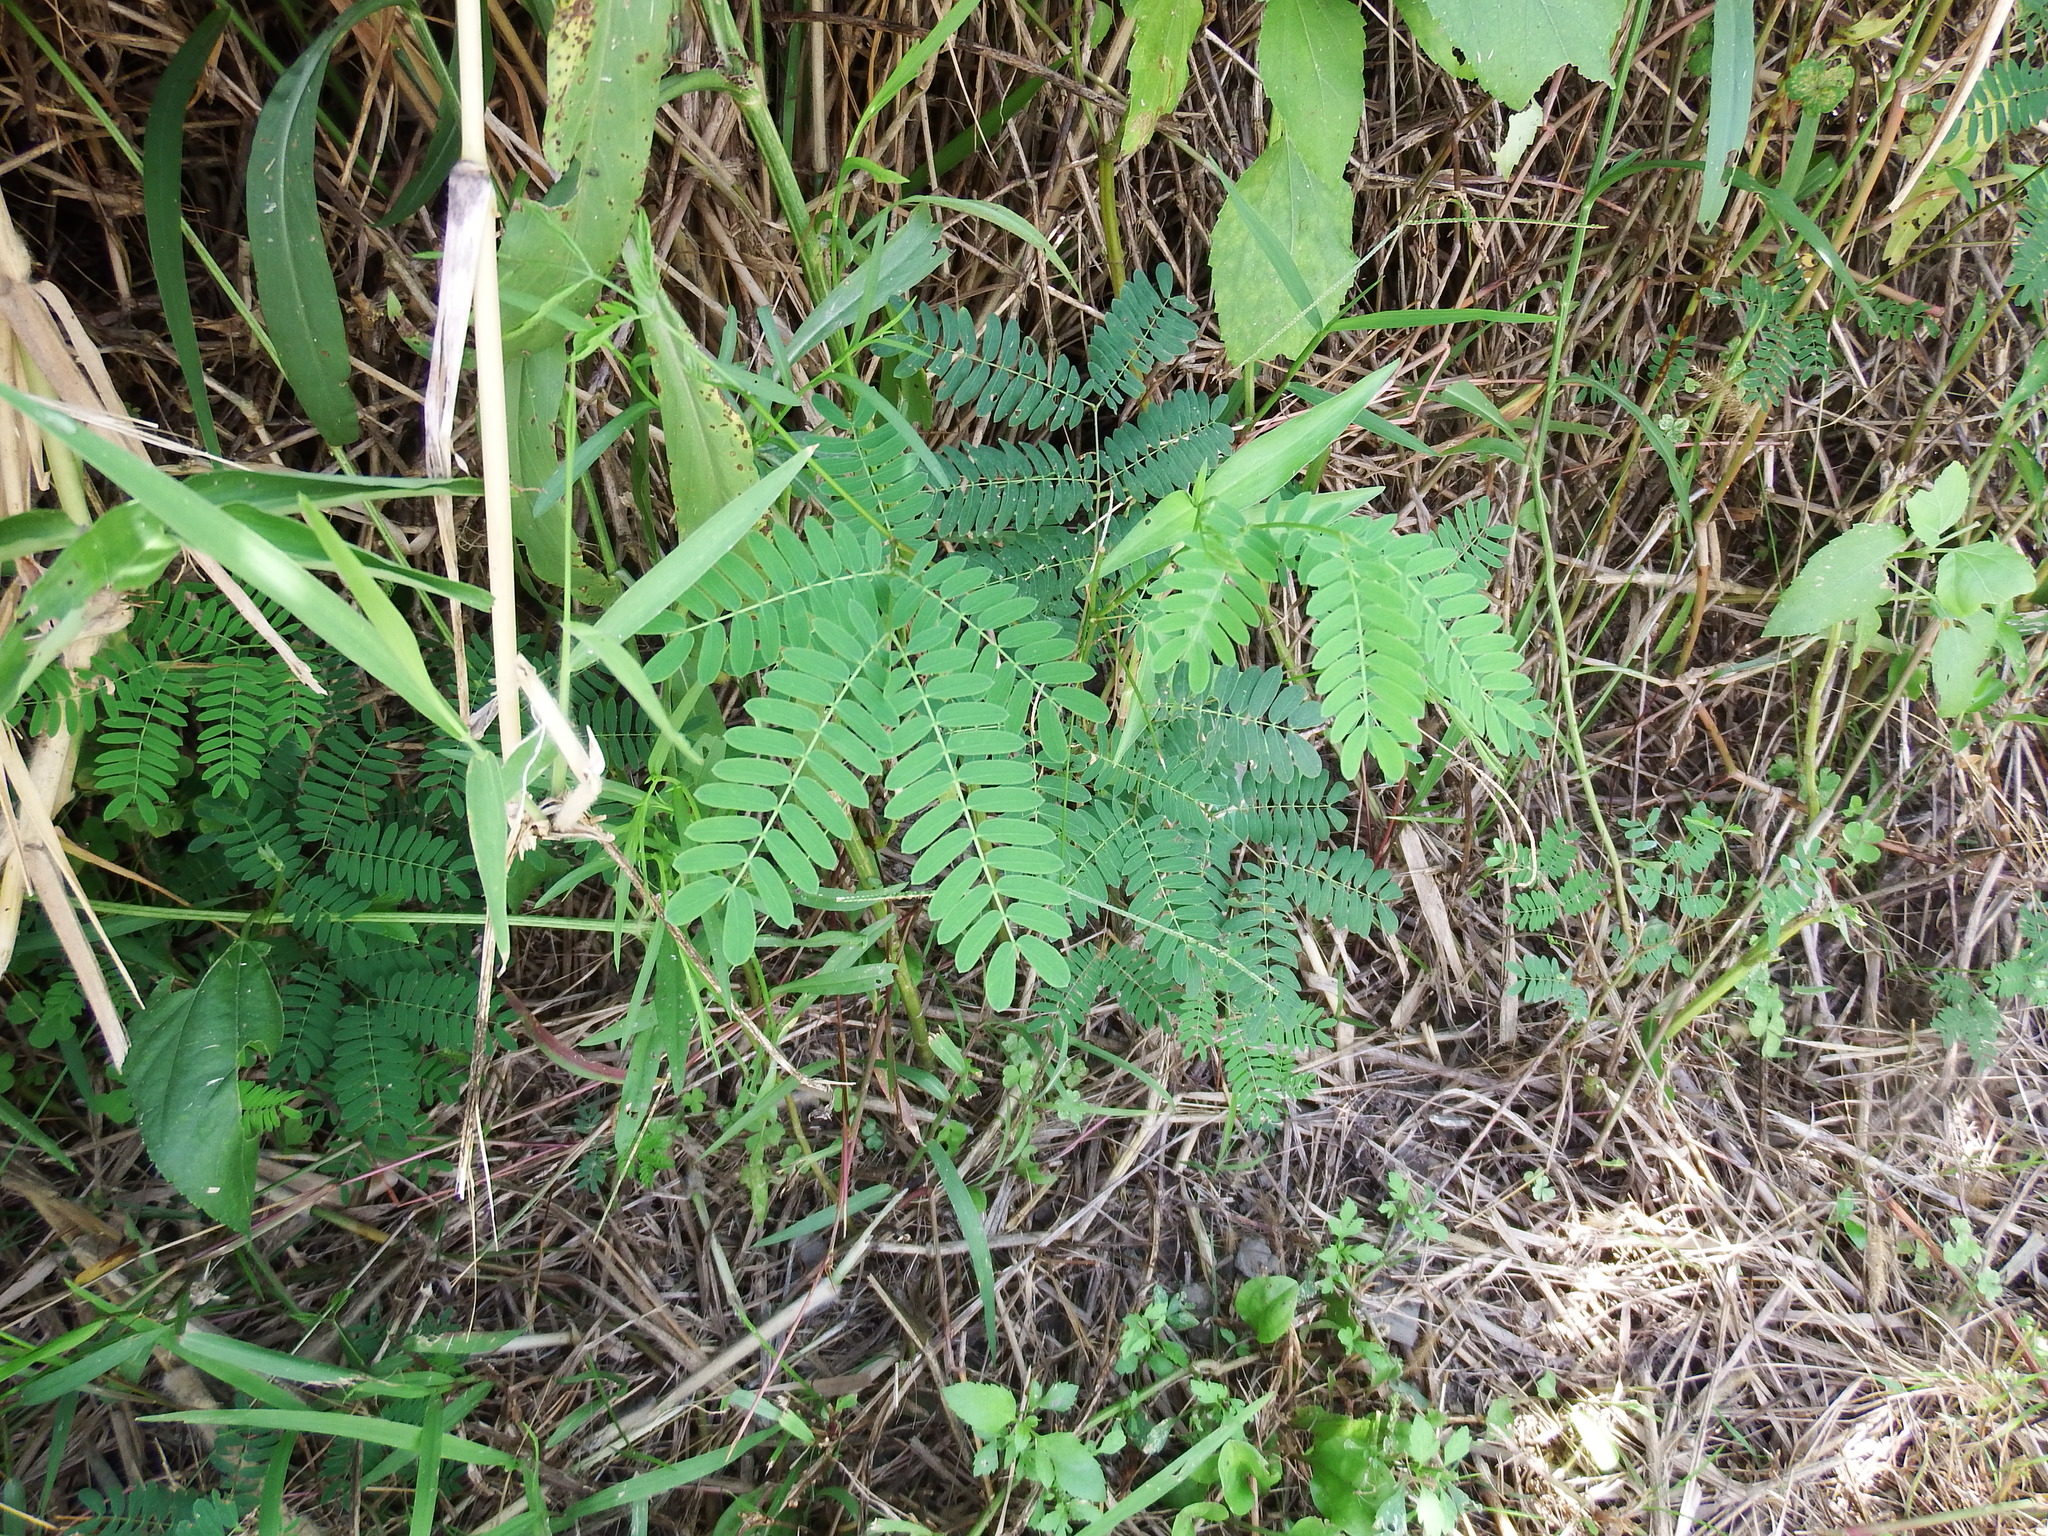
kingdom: Plantae
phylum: Tracheophyta
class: Magnoliopsida
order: Fabales
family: Fabaceae
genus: Leucaena
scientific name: Leucaena leucocephala
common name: White leadtree
